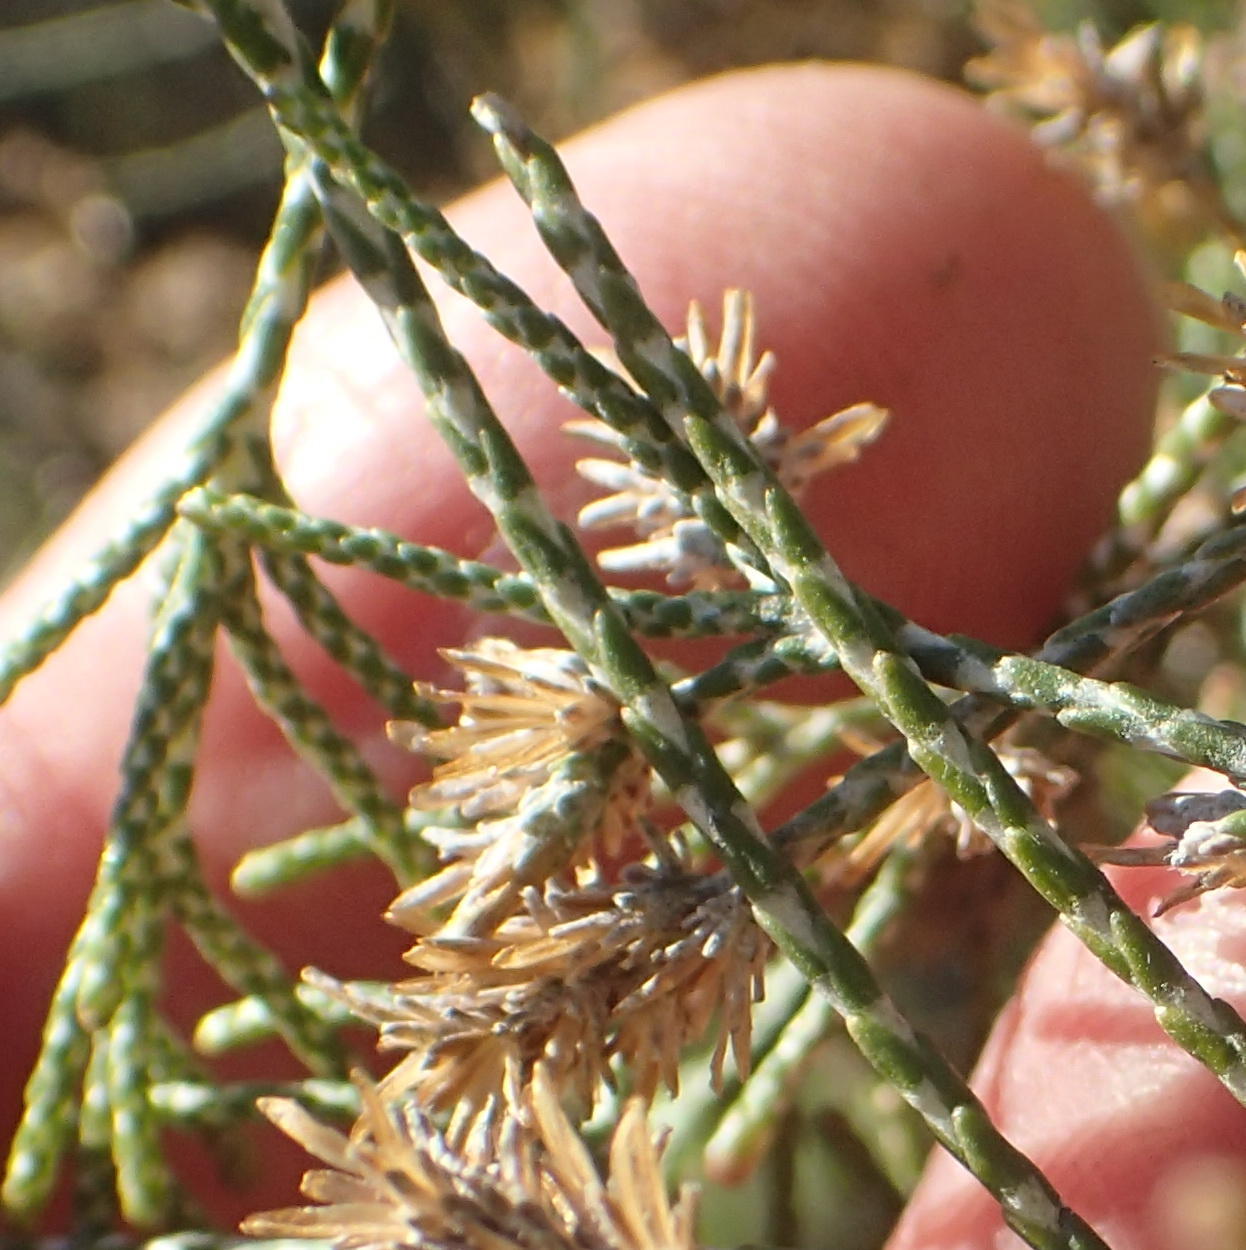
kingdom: Plantae
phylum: Tracheophyta
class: Magnoliopsida
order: Asterales
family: Asteraceae
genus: Dicerothamnus
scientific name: Dicerothamnus rhinocerotis
